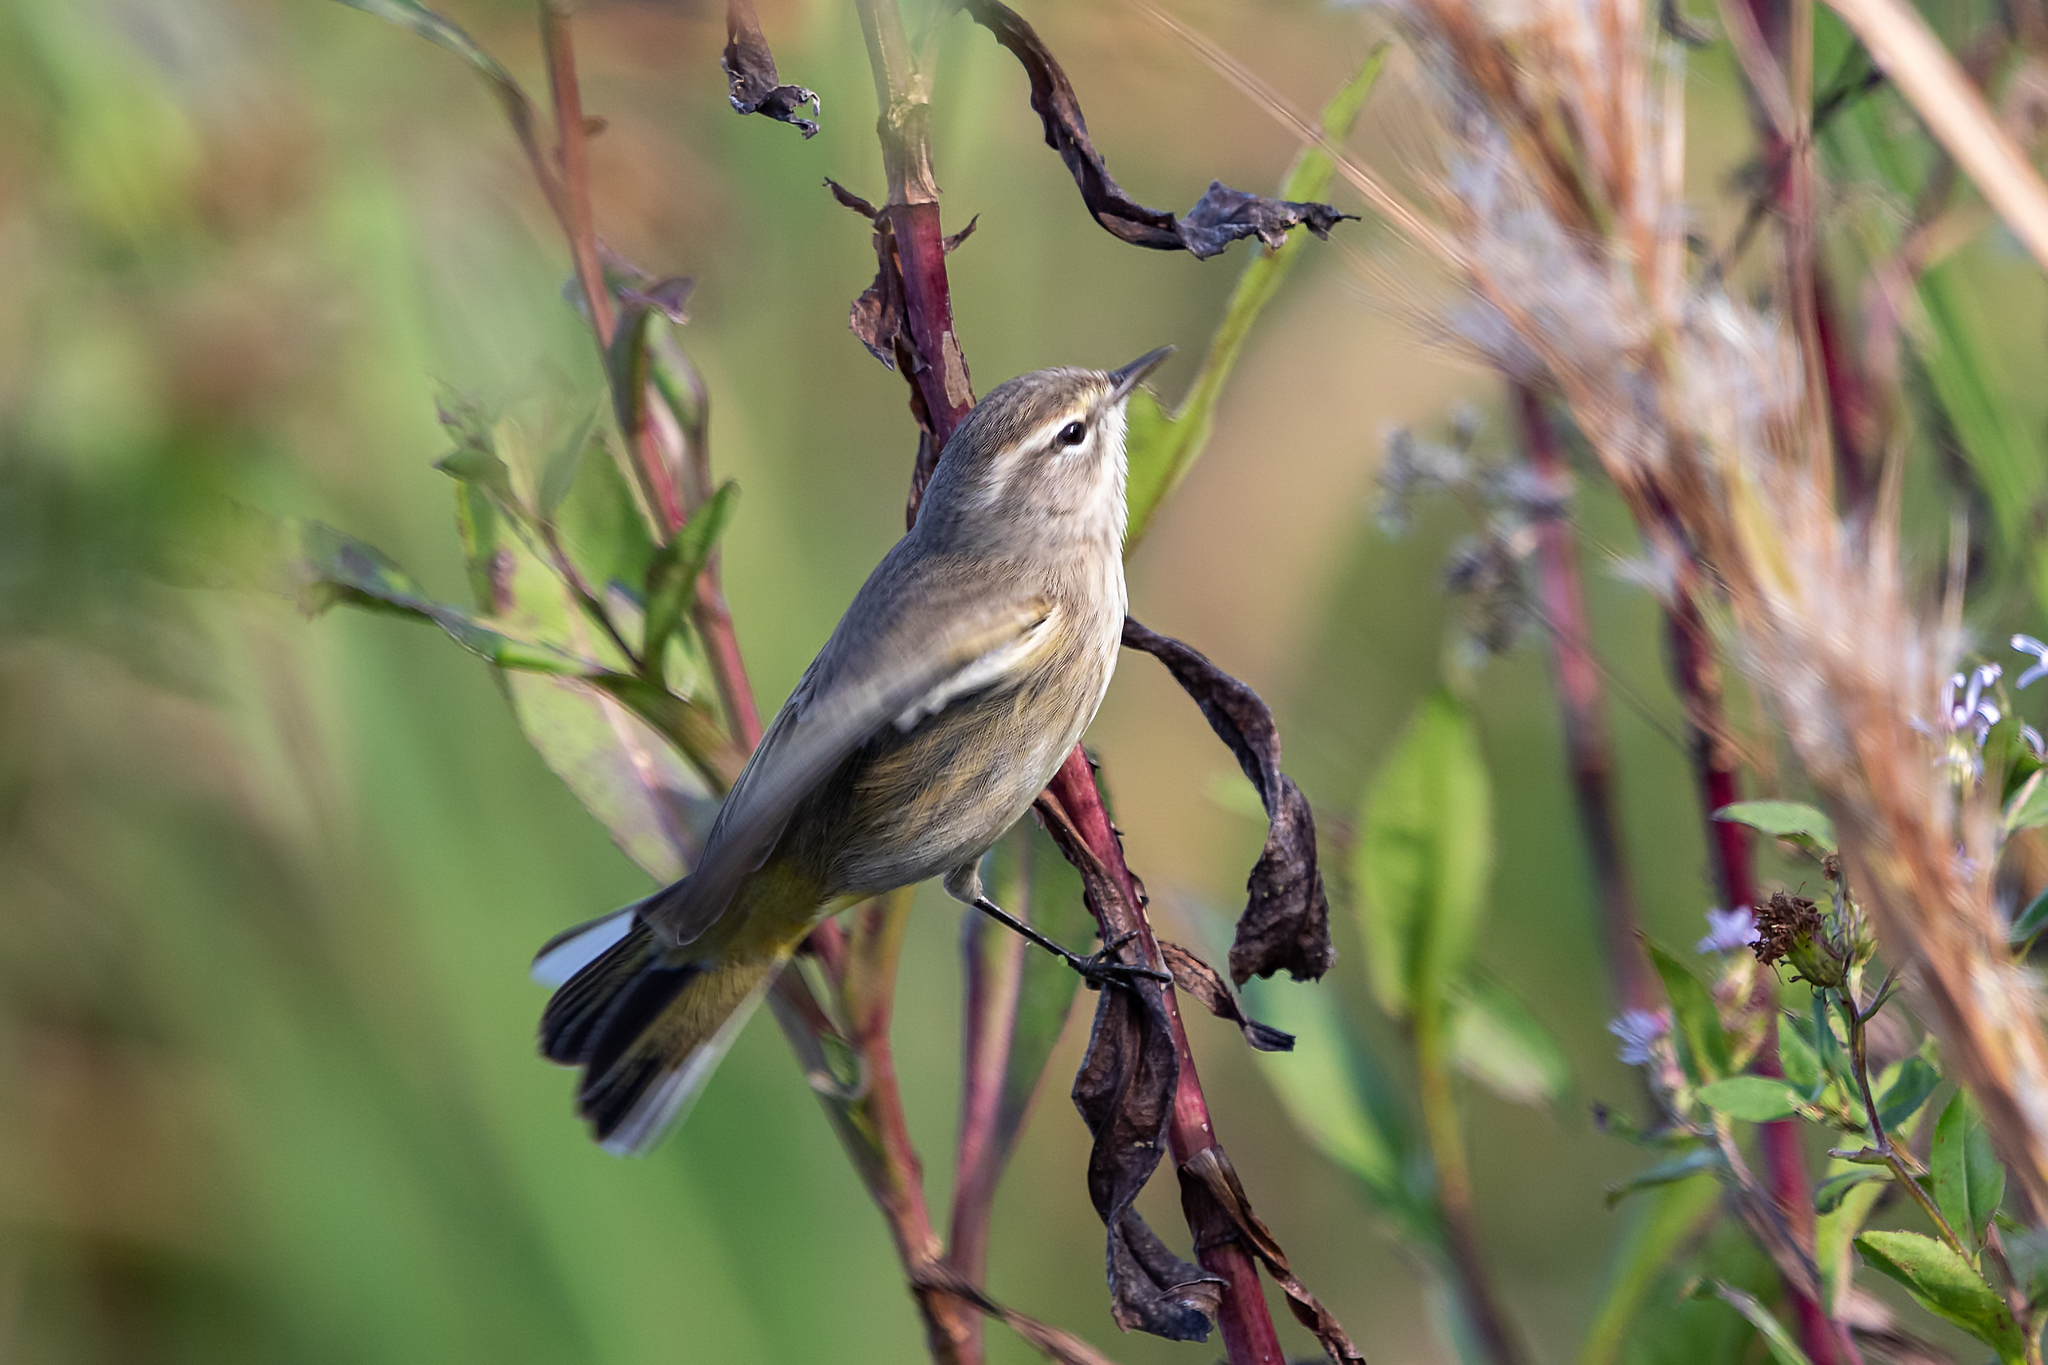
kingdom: Animalia
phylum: Chordata
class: Aves
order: Passeriformes
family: Parulidae
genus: Setophaga
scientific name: Setophaga palmarum
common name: Palm warbler
